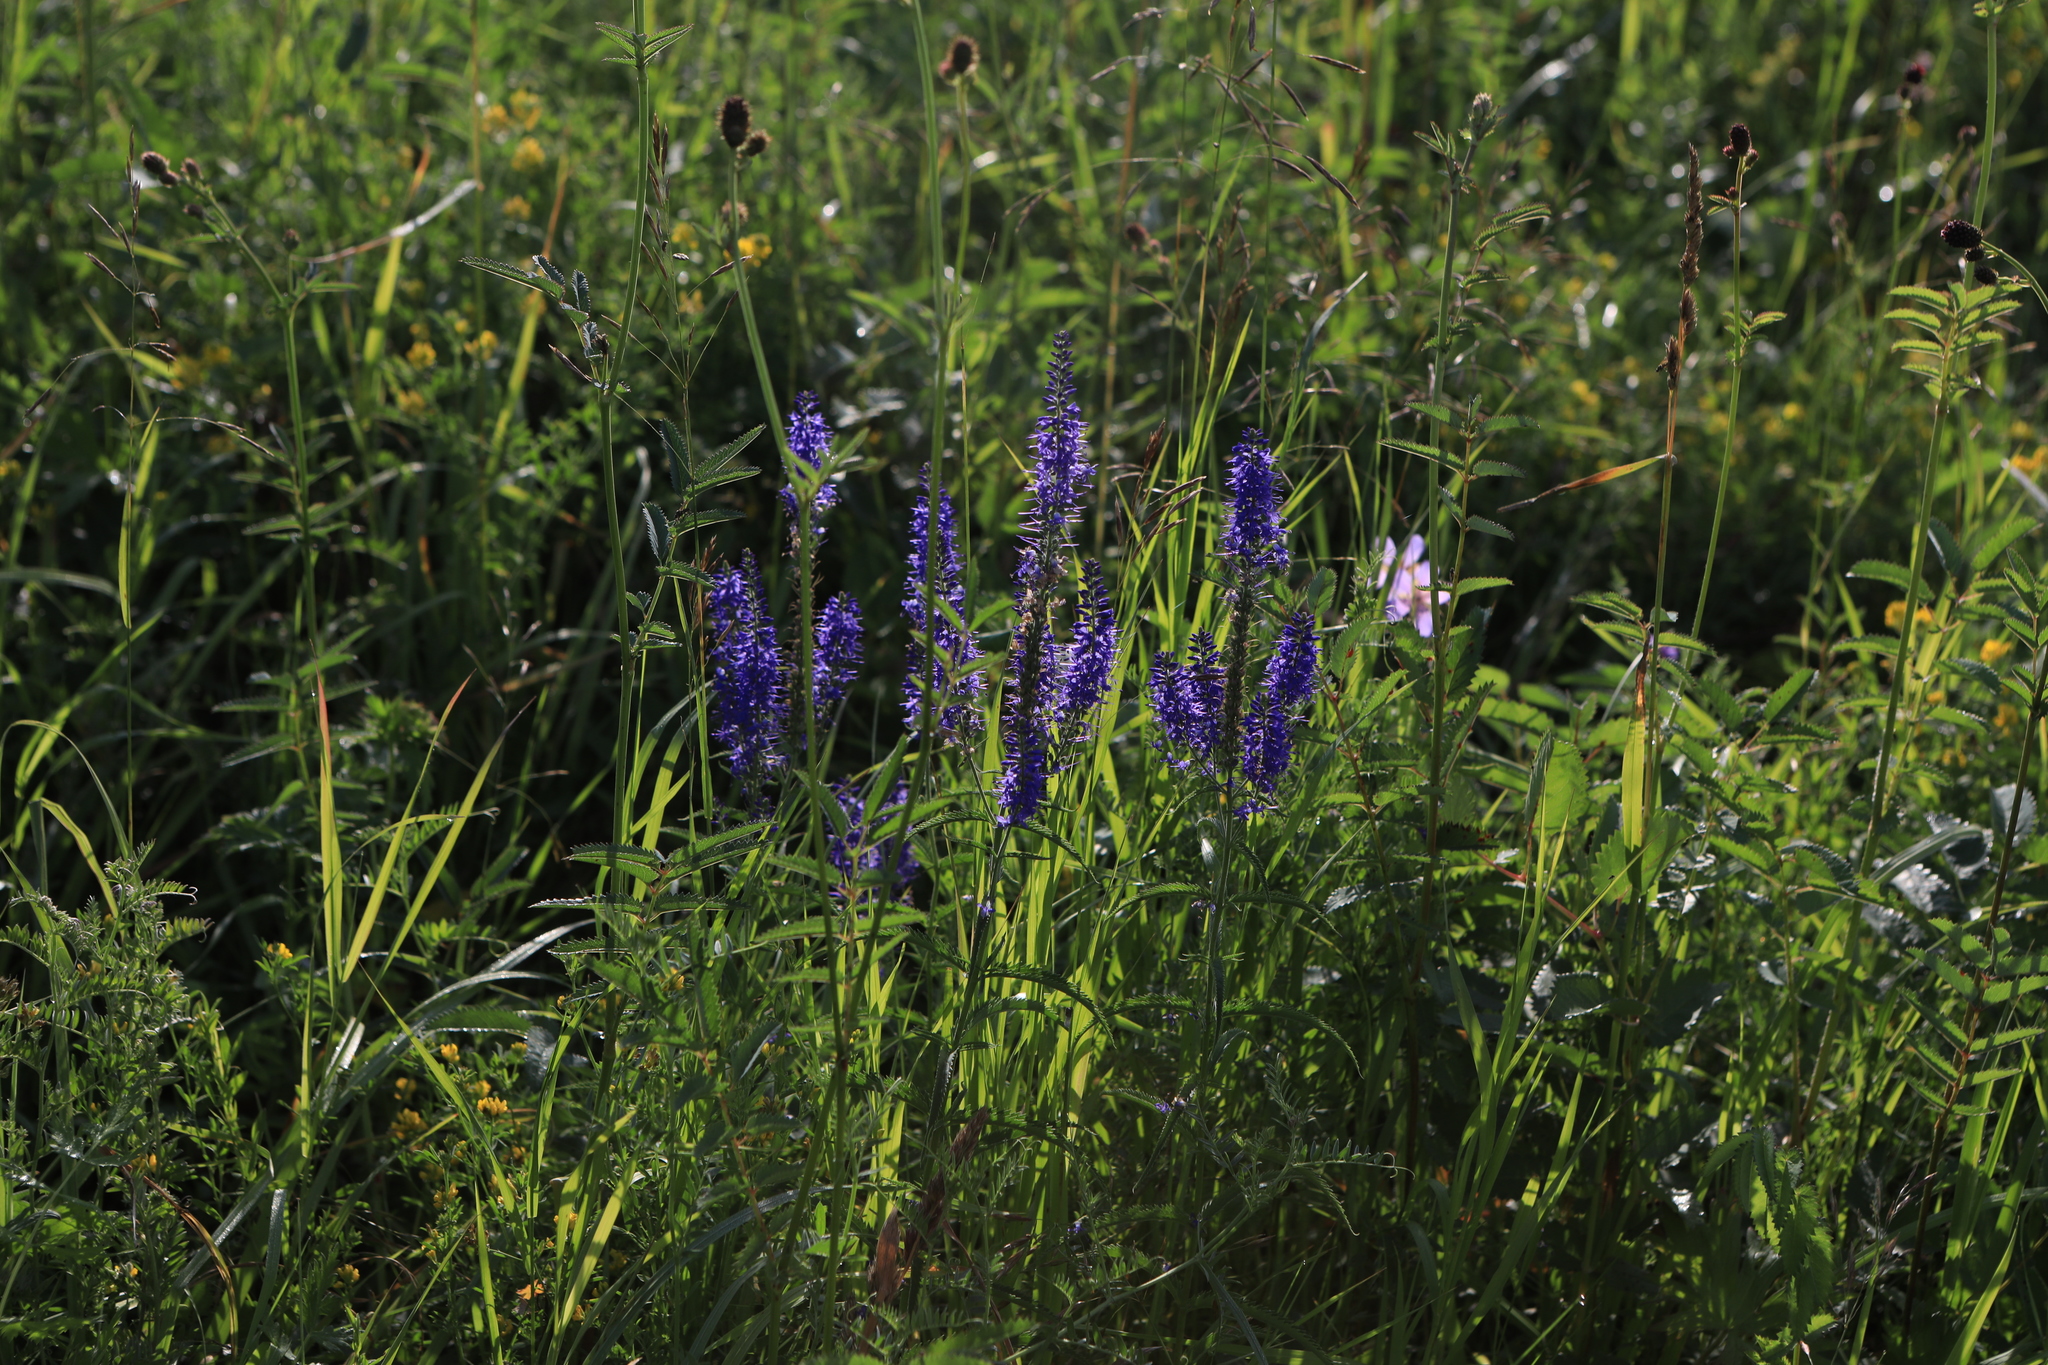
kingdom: Plantae
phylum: Tracheophyta
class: Magnoliopsida
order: Lamiales
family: Plantaginaceae
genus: Veronica
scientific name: Veronica longifolia
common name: Garden speedwell
